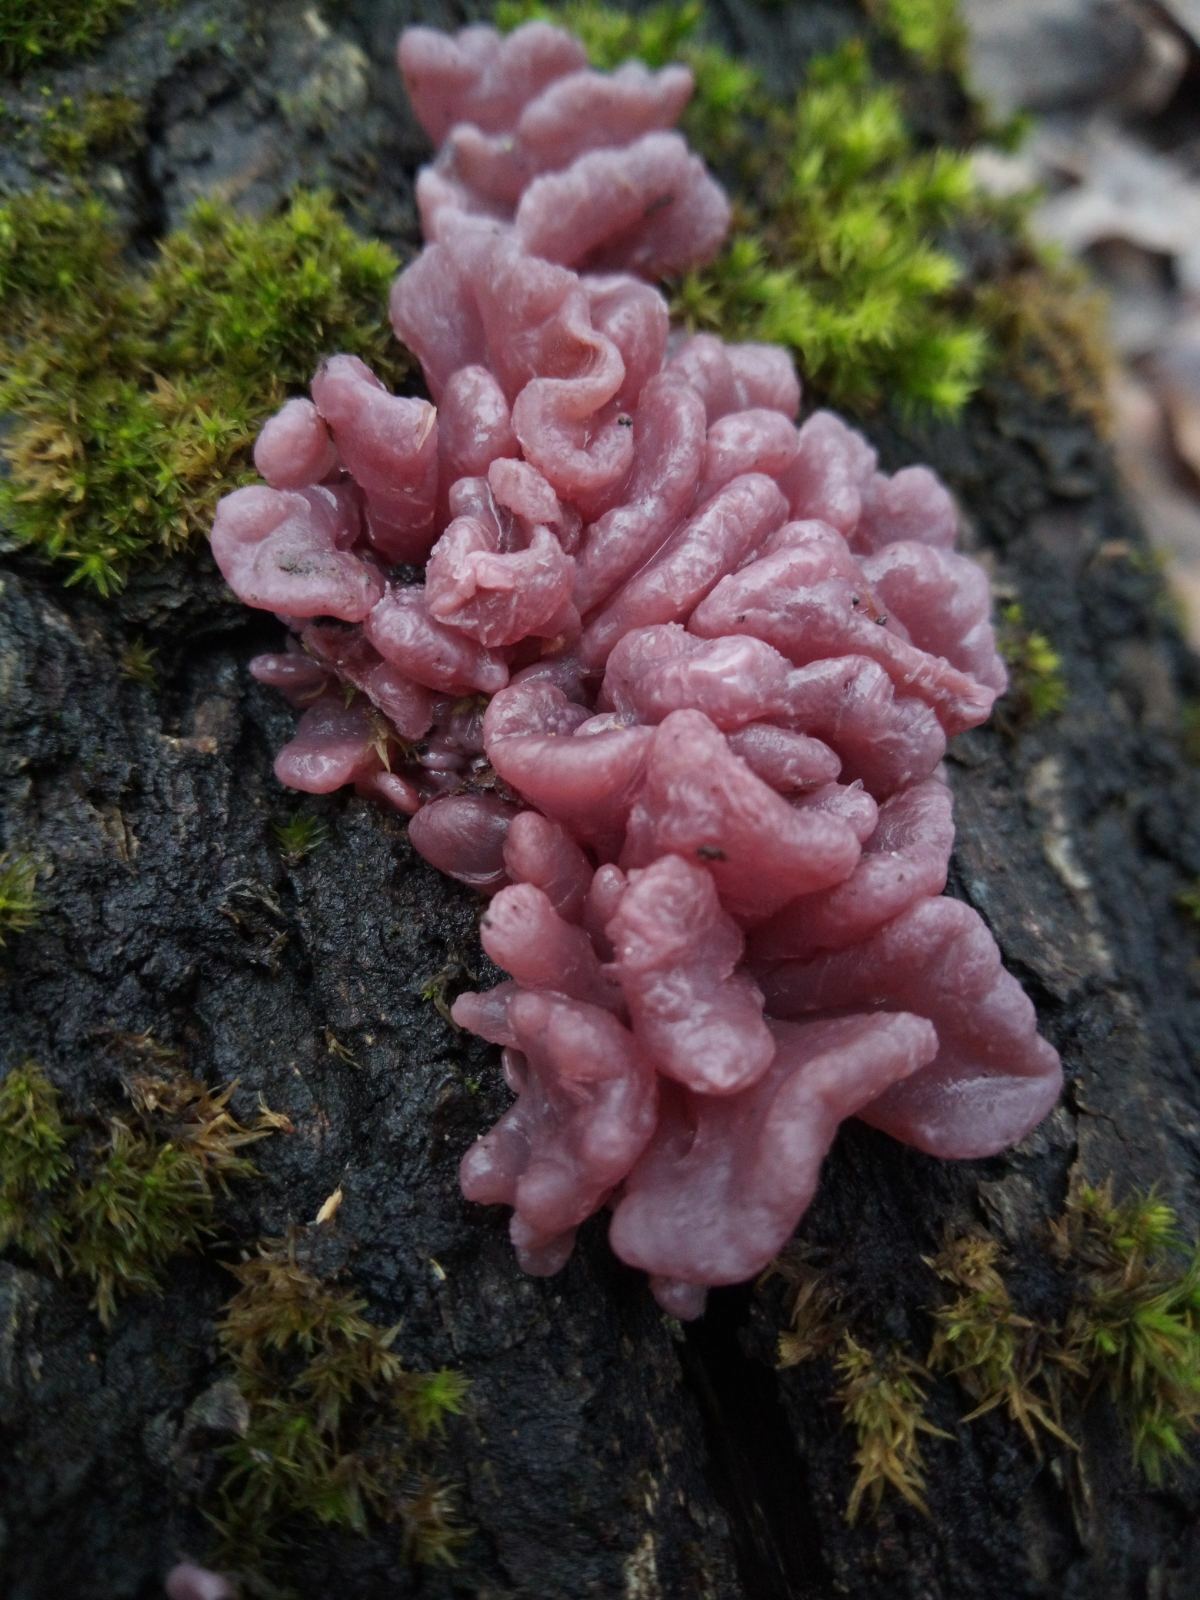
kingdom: Fungi
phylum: Ascomycota
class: Leotiomycetes
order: Helotiales
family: Gelatinodiscaceae
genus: Ascocoryne
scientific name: Ascocoryne sarcoides
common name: Purple jellydisc
